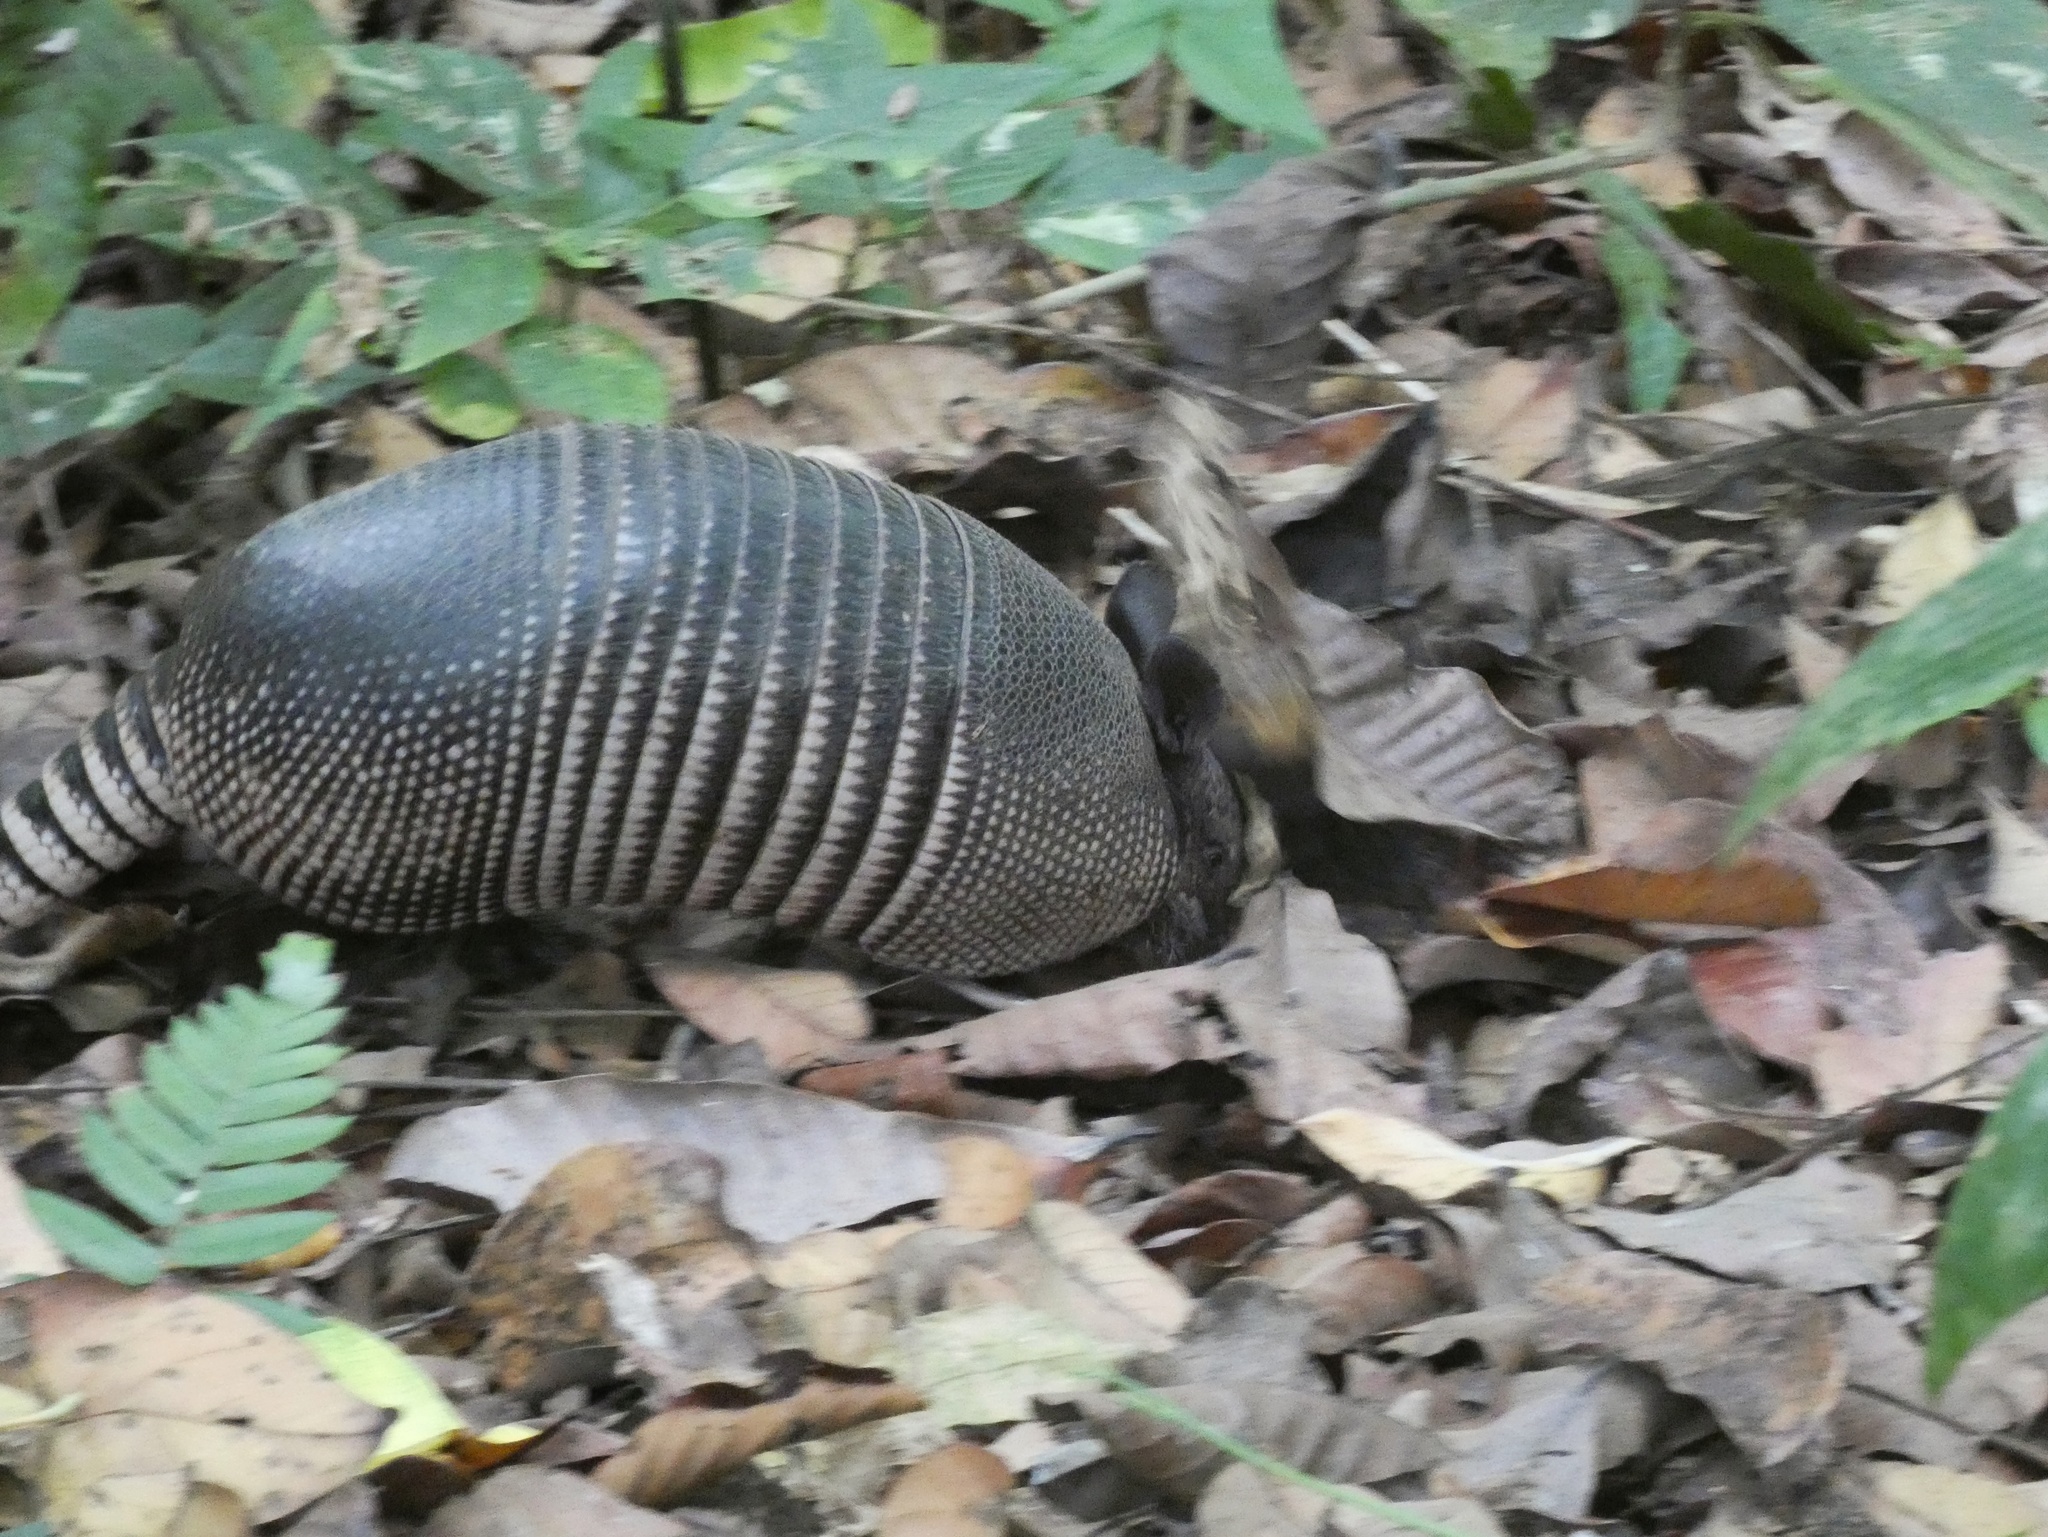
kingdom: Animalia
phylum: Chordata
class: Mammalia
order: Cingulata
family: Dasypodidae
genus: Dasypus
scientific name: Dasypus novemcinctus
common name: Nine-banded armadillo
